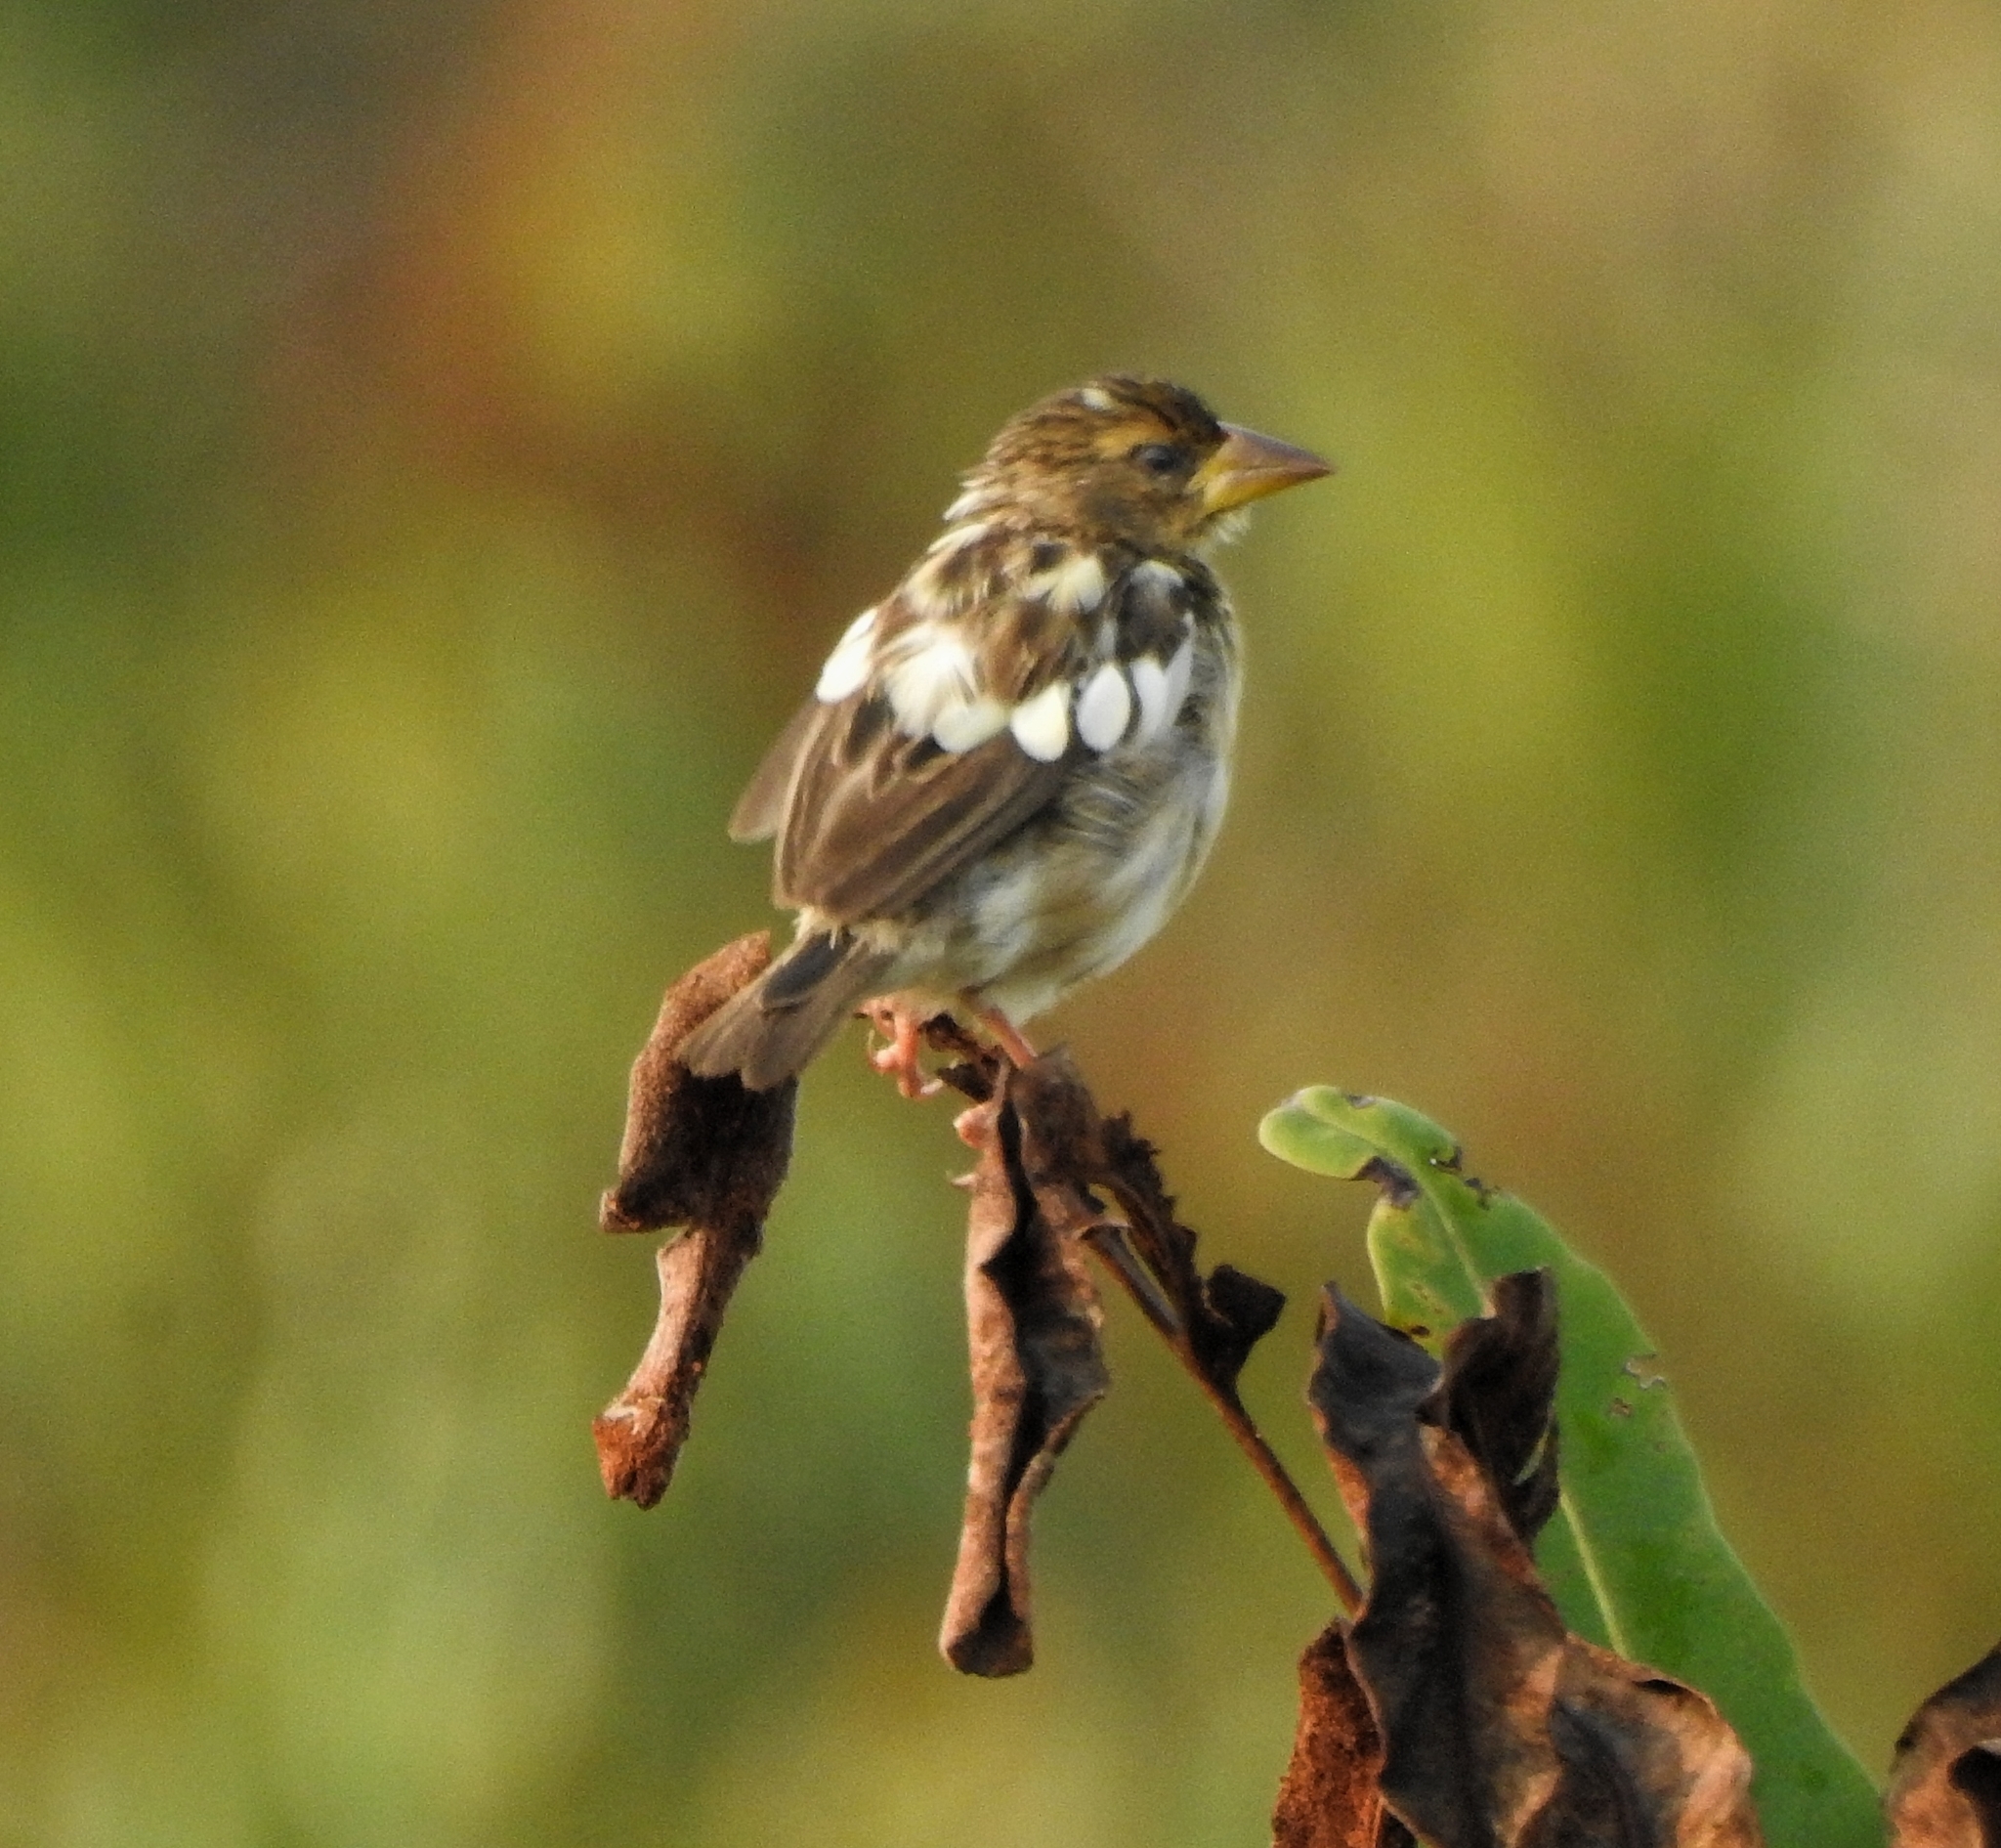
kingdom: Animalia
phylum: Chordata
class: Aves
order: Passeriformes
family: Ploceidae
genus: Ploceus
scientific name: Ploceus philippinus
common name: Baya weaver
